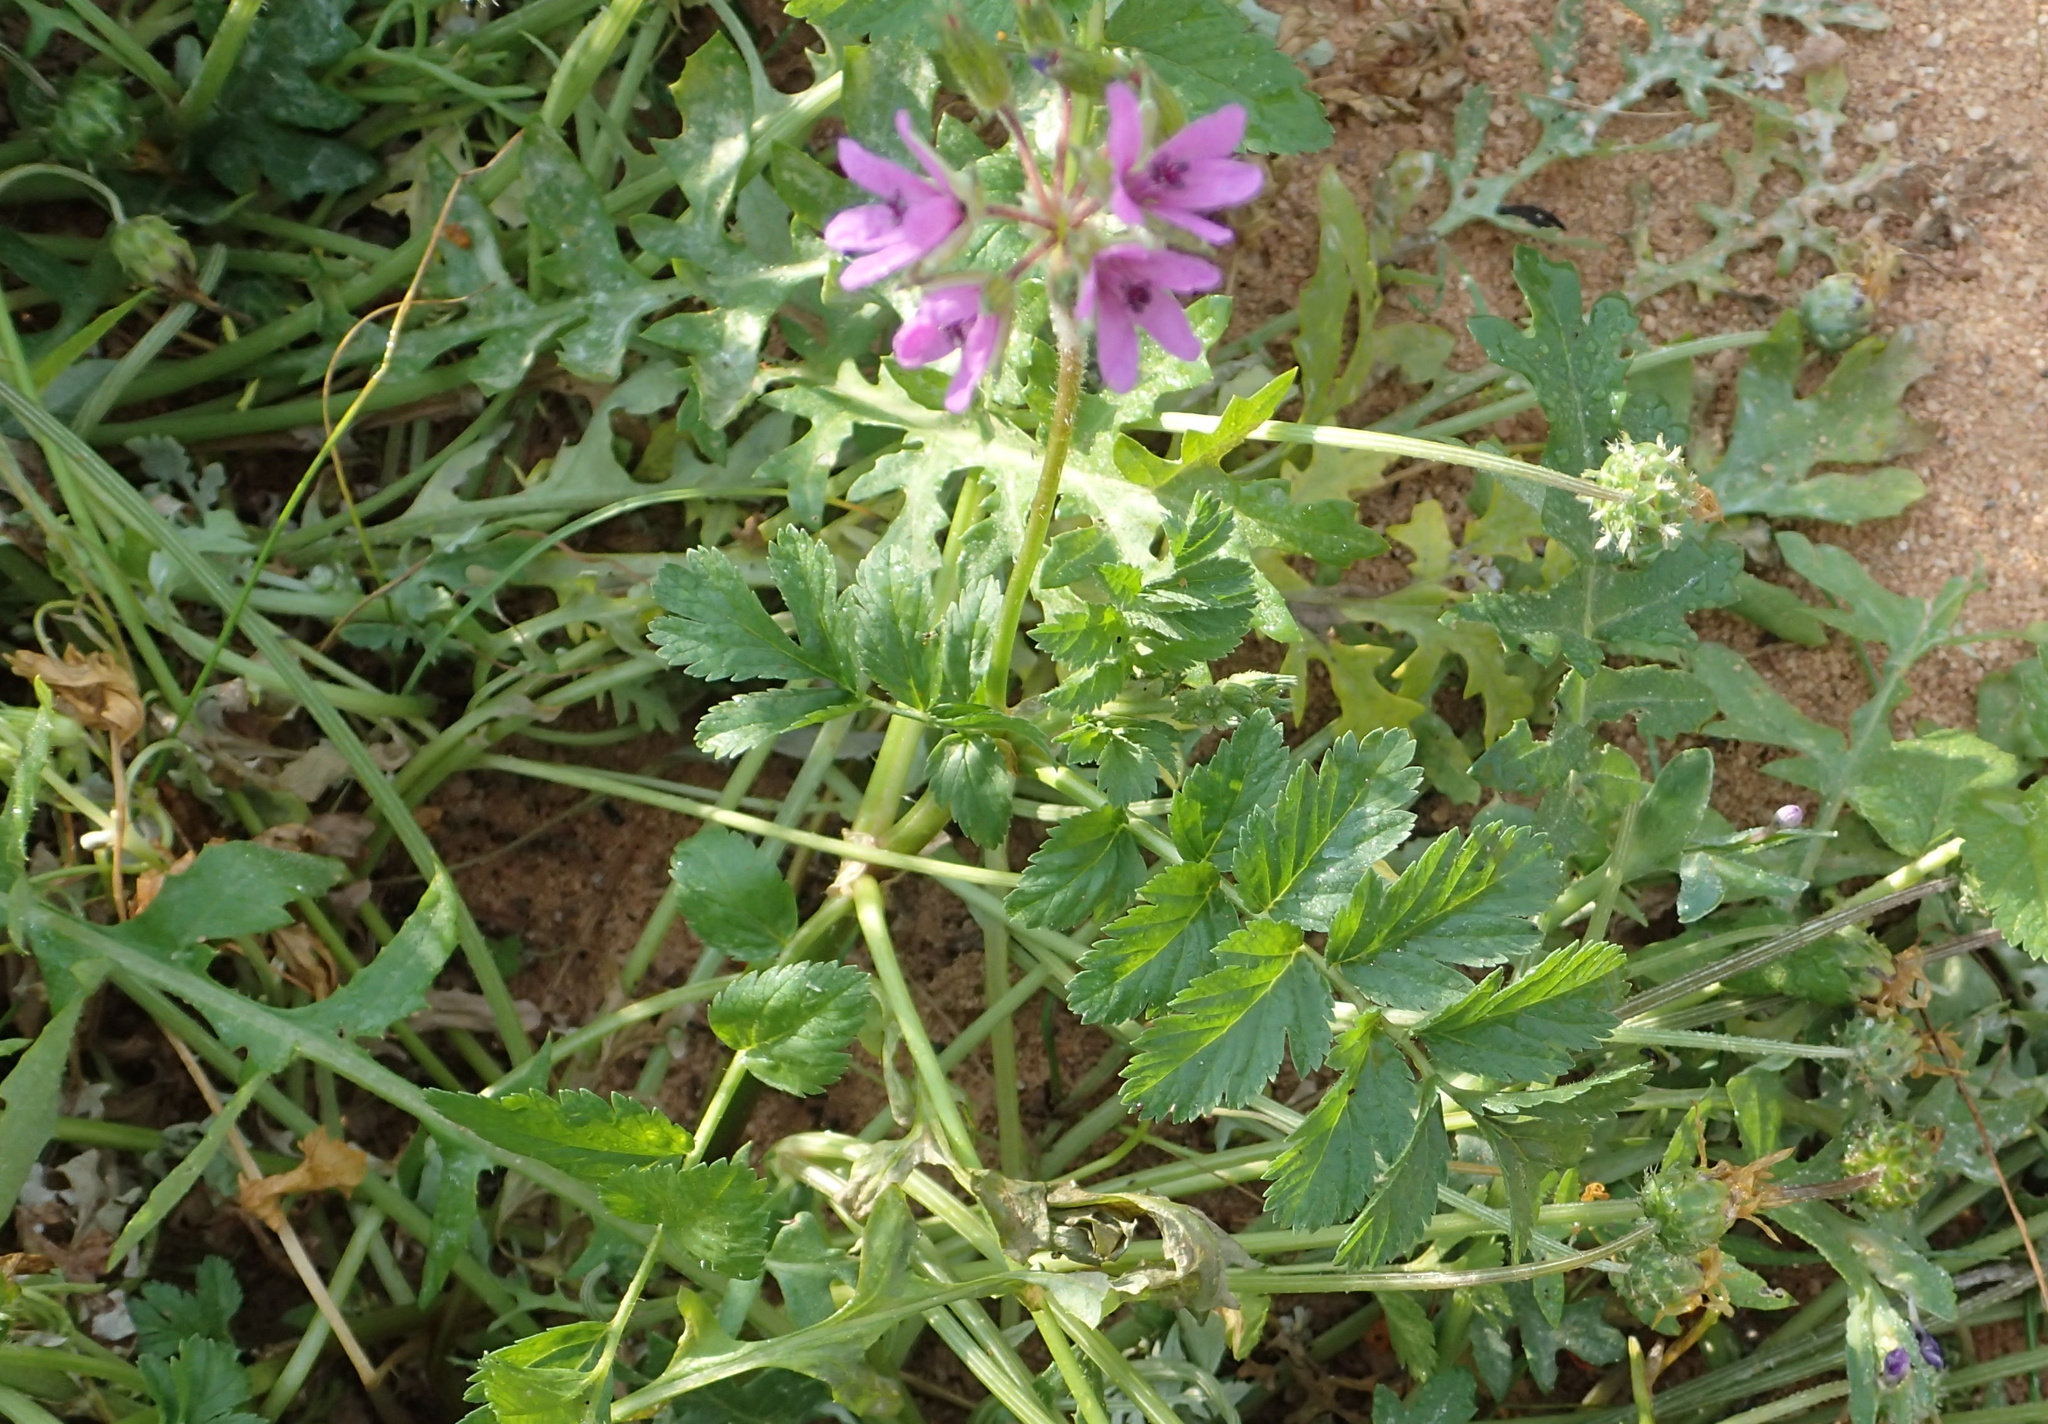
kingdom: Plantae
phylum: Tracheophyta
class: Magnoliopsida
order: Geraniales
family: Geraniaceae
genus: Erodium
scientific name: Erodium cicutarium
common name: Common stork's-bill
